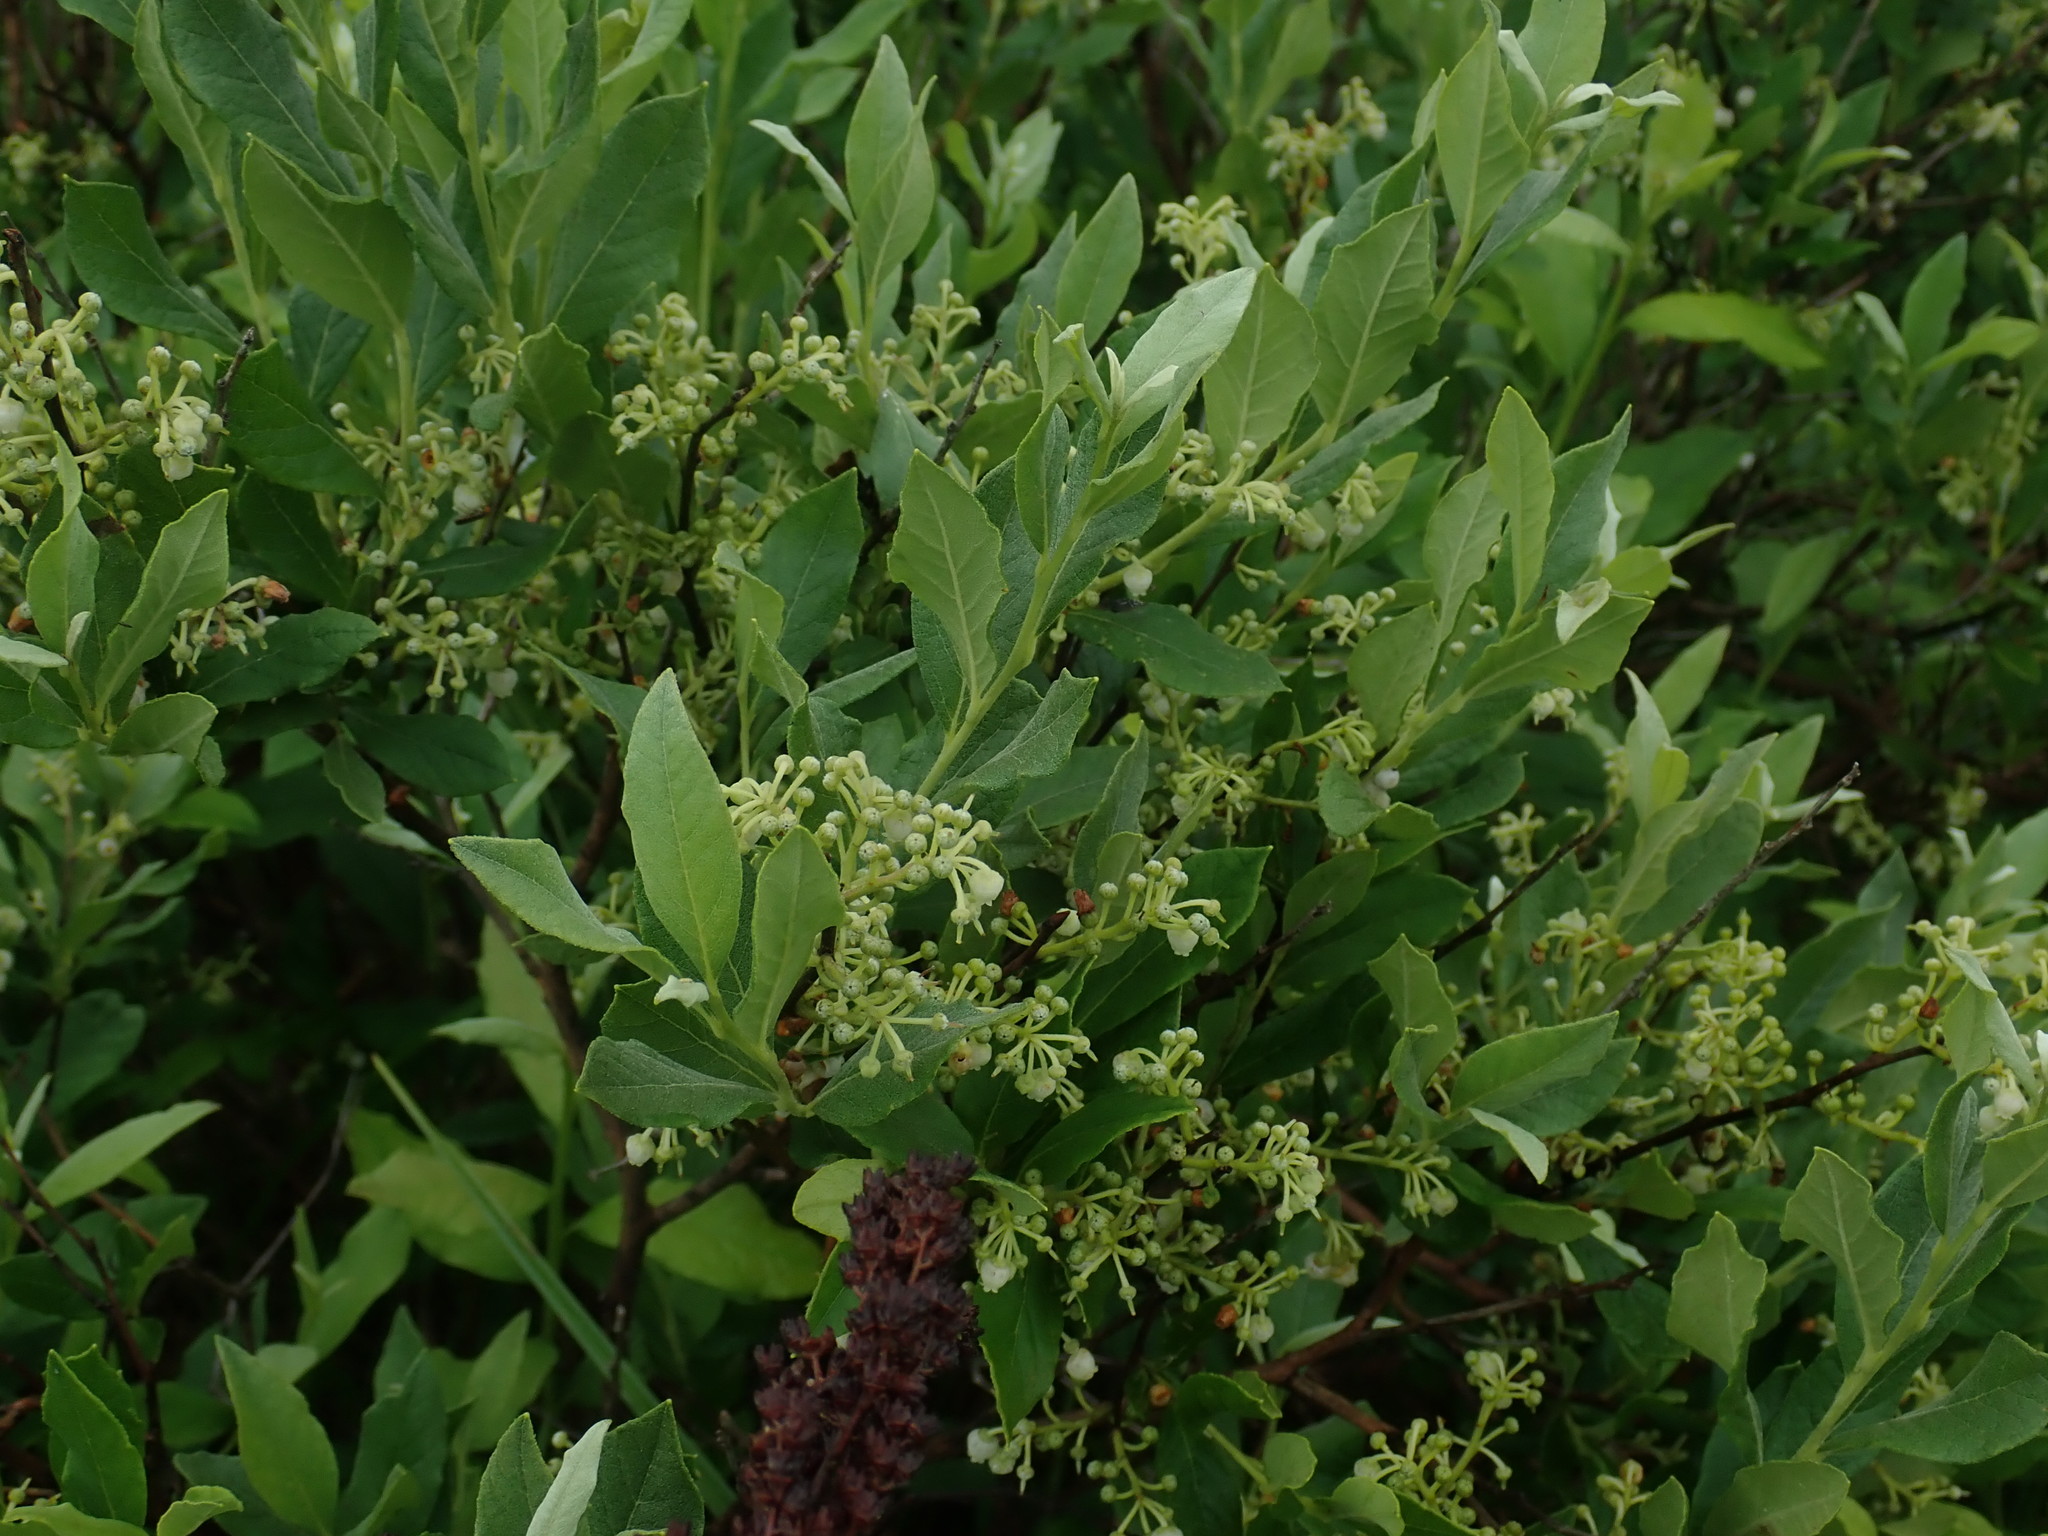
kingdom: Plantae
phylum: Tracheophyta
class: Magnoliopsida
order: Ericales
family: Ericaceae
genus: Lyonia
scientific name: Lyonia ligustrina
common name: Maleberry
